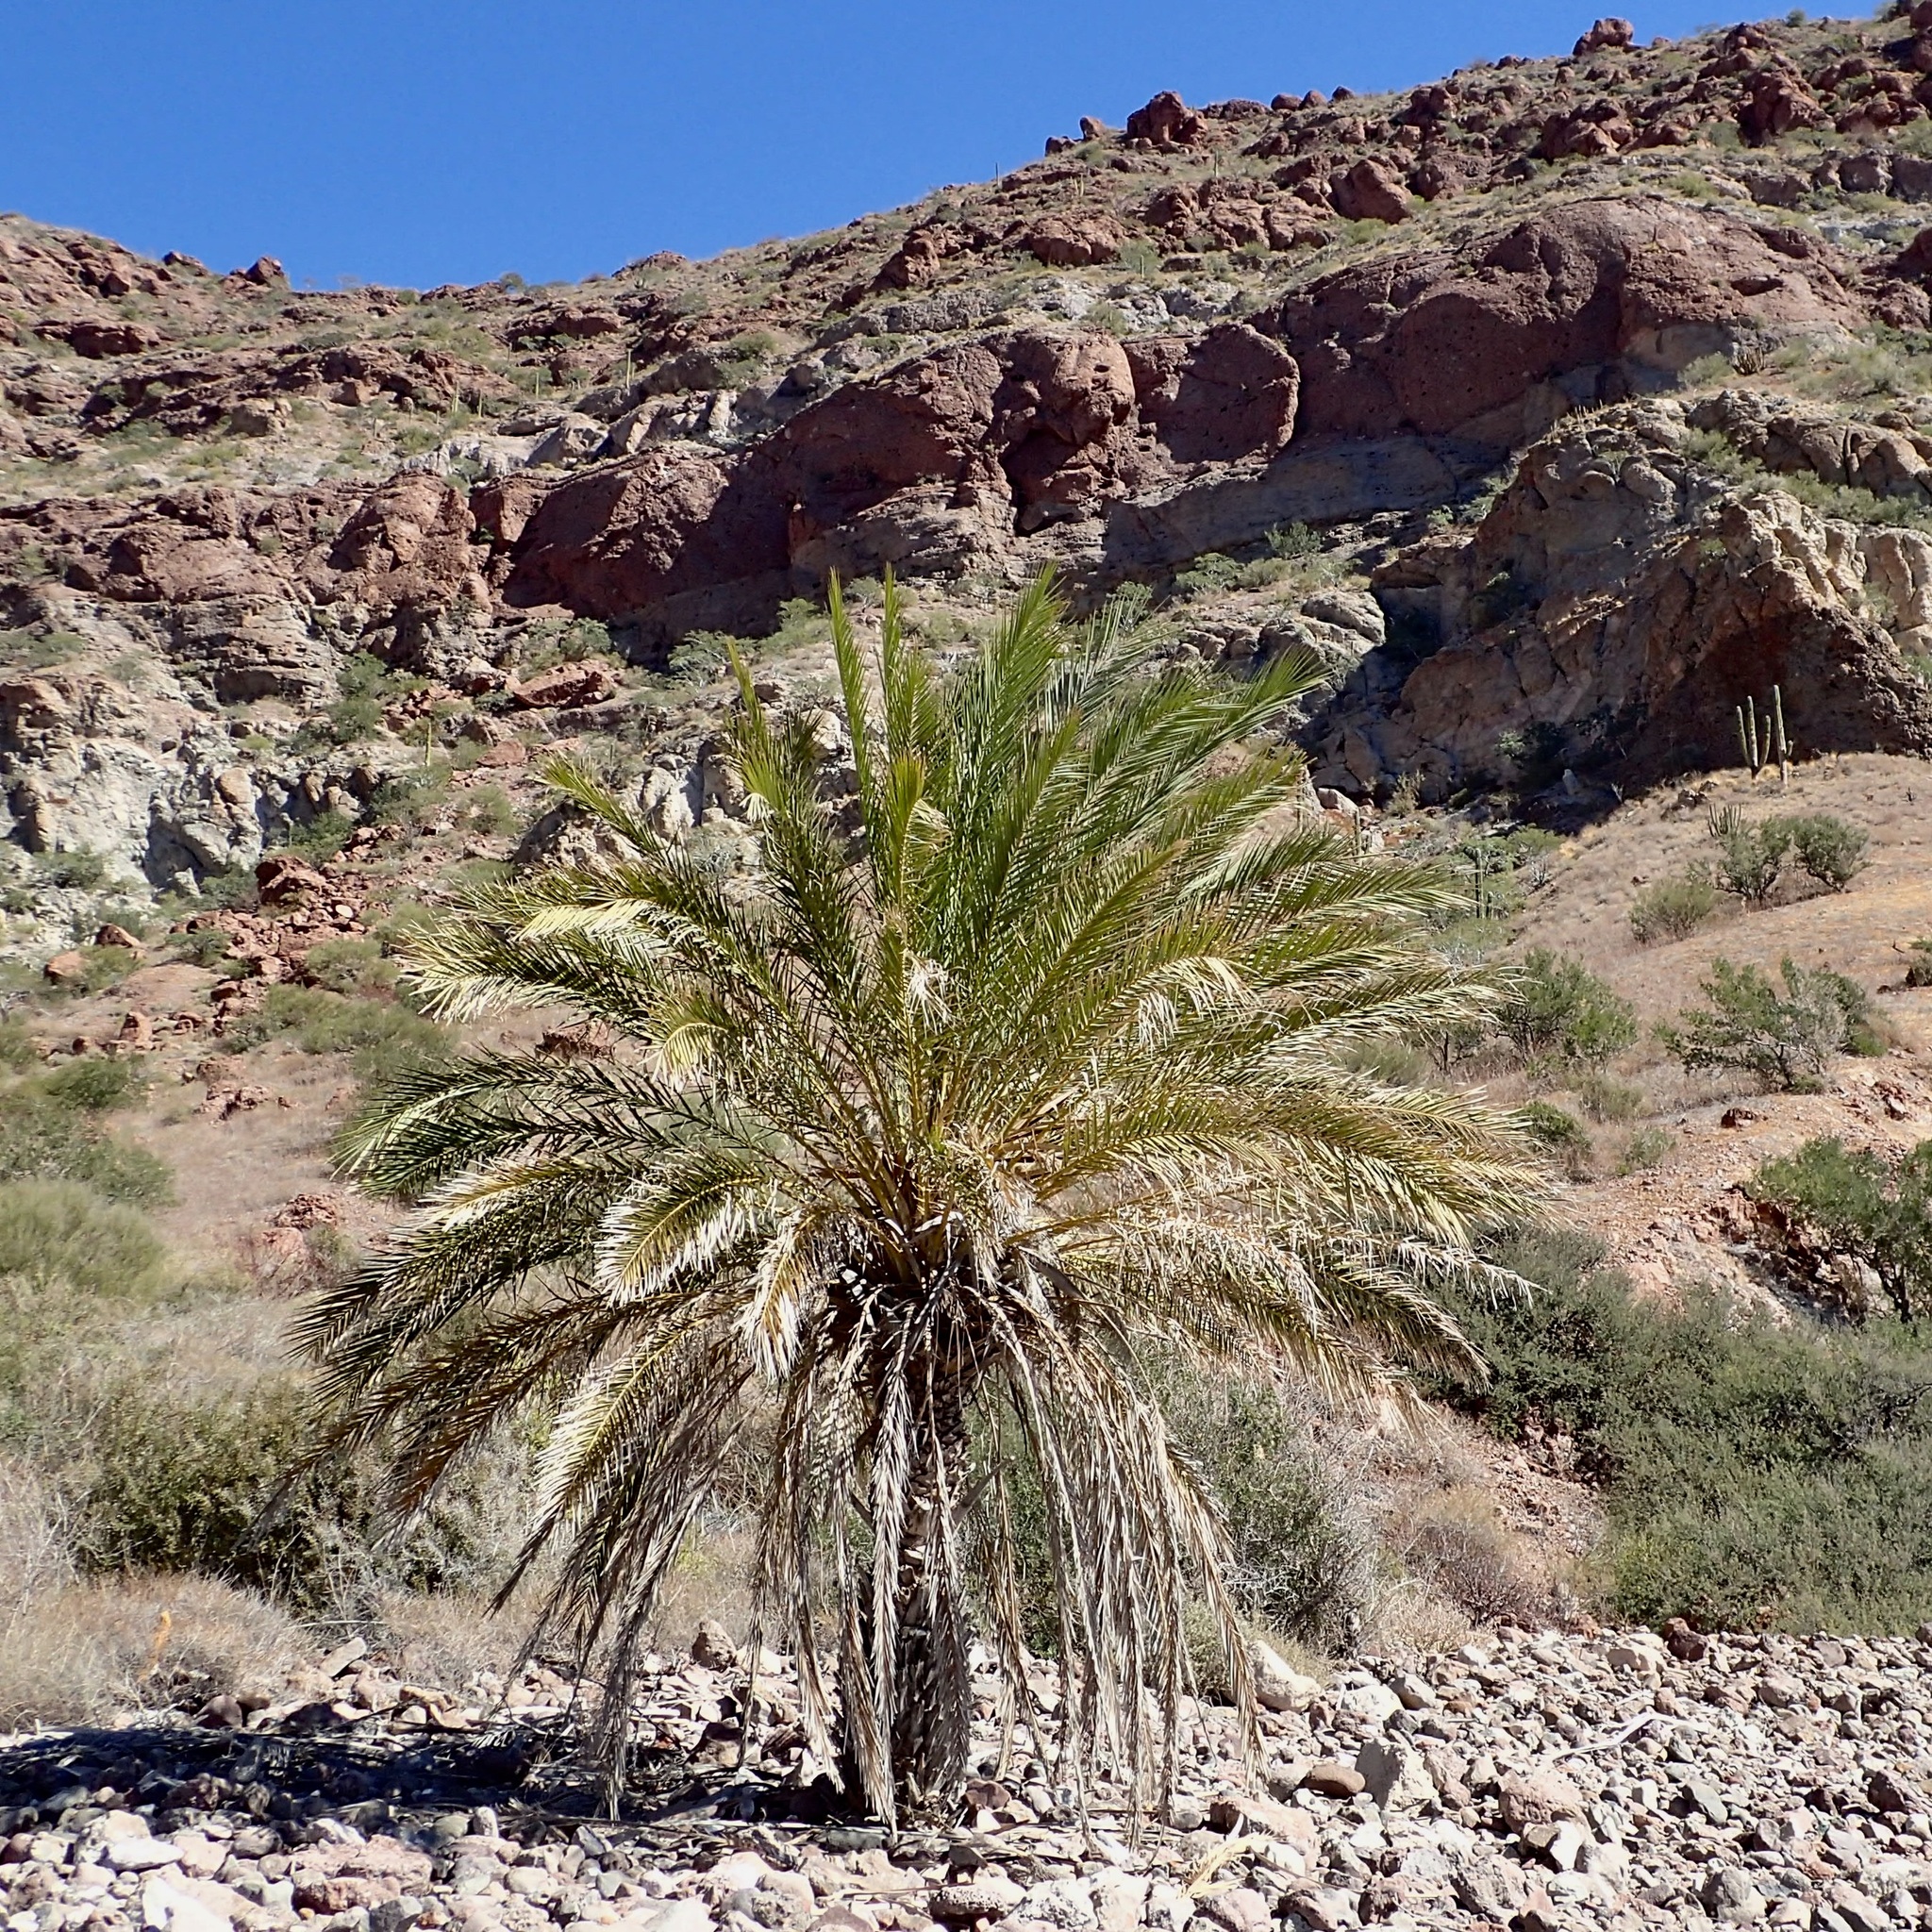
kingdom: Plantae
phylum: Tracheophyta
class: Liliopsida
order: Arecales
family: Arecaceae
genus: Phoenix
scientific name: Phoenix dactylifera
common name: Date palm
